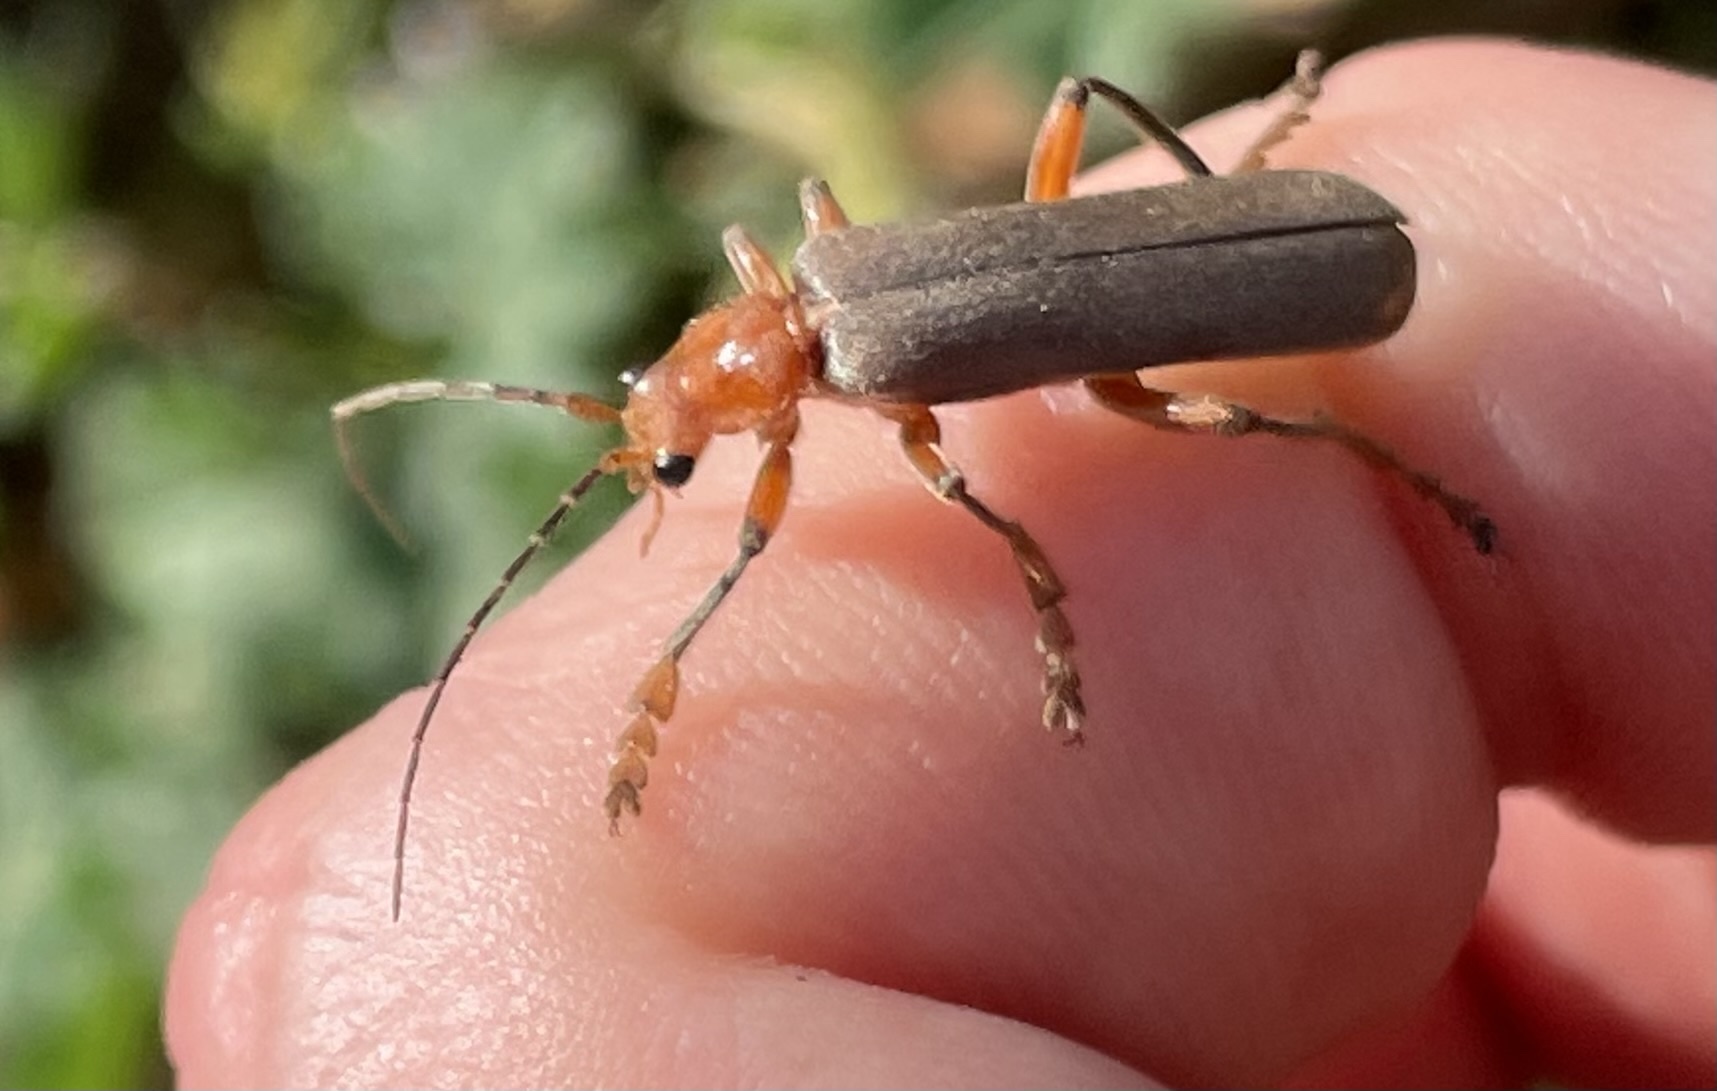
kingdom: Animalia
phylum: Arthropoda
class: Insecta
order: Coleoptera
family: Cantharidae
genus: Pacificanthia
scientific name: Pacificanthia consors
